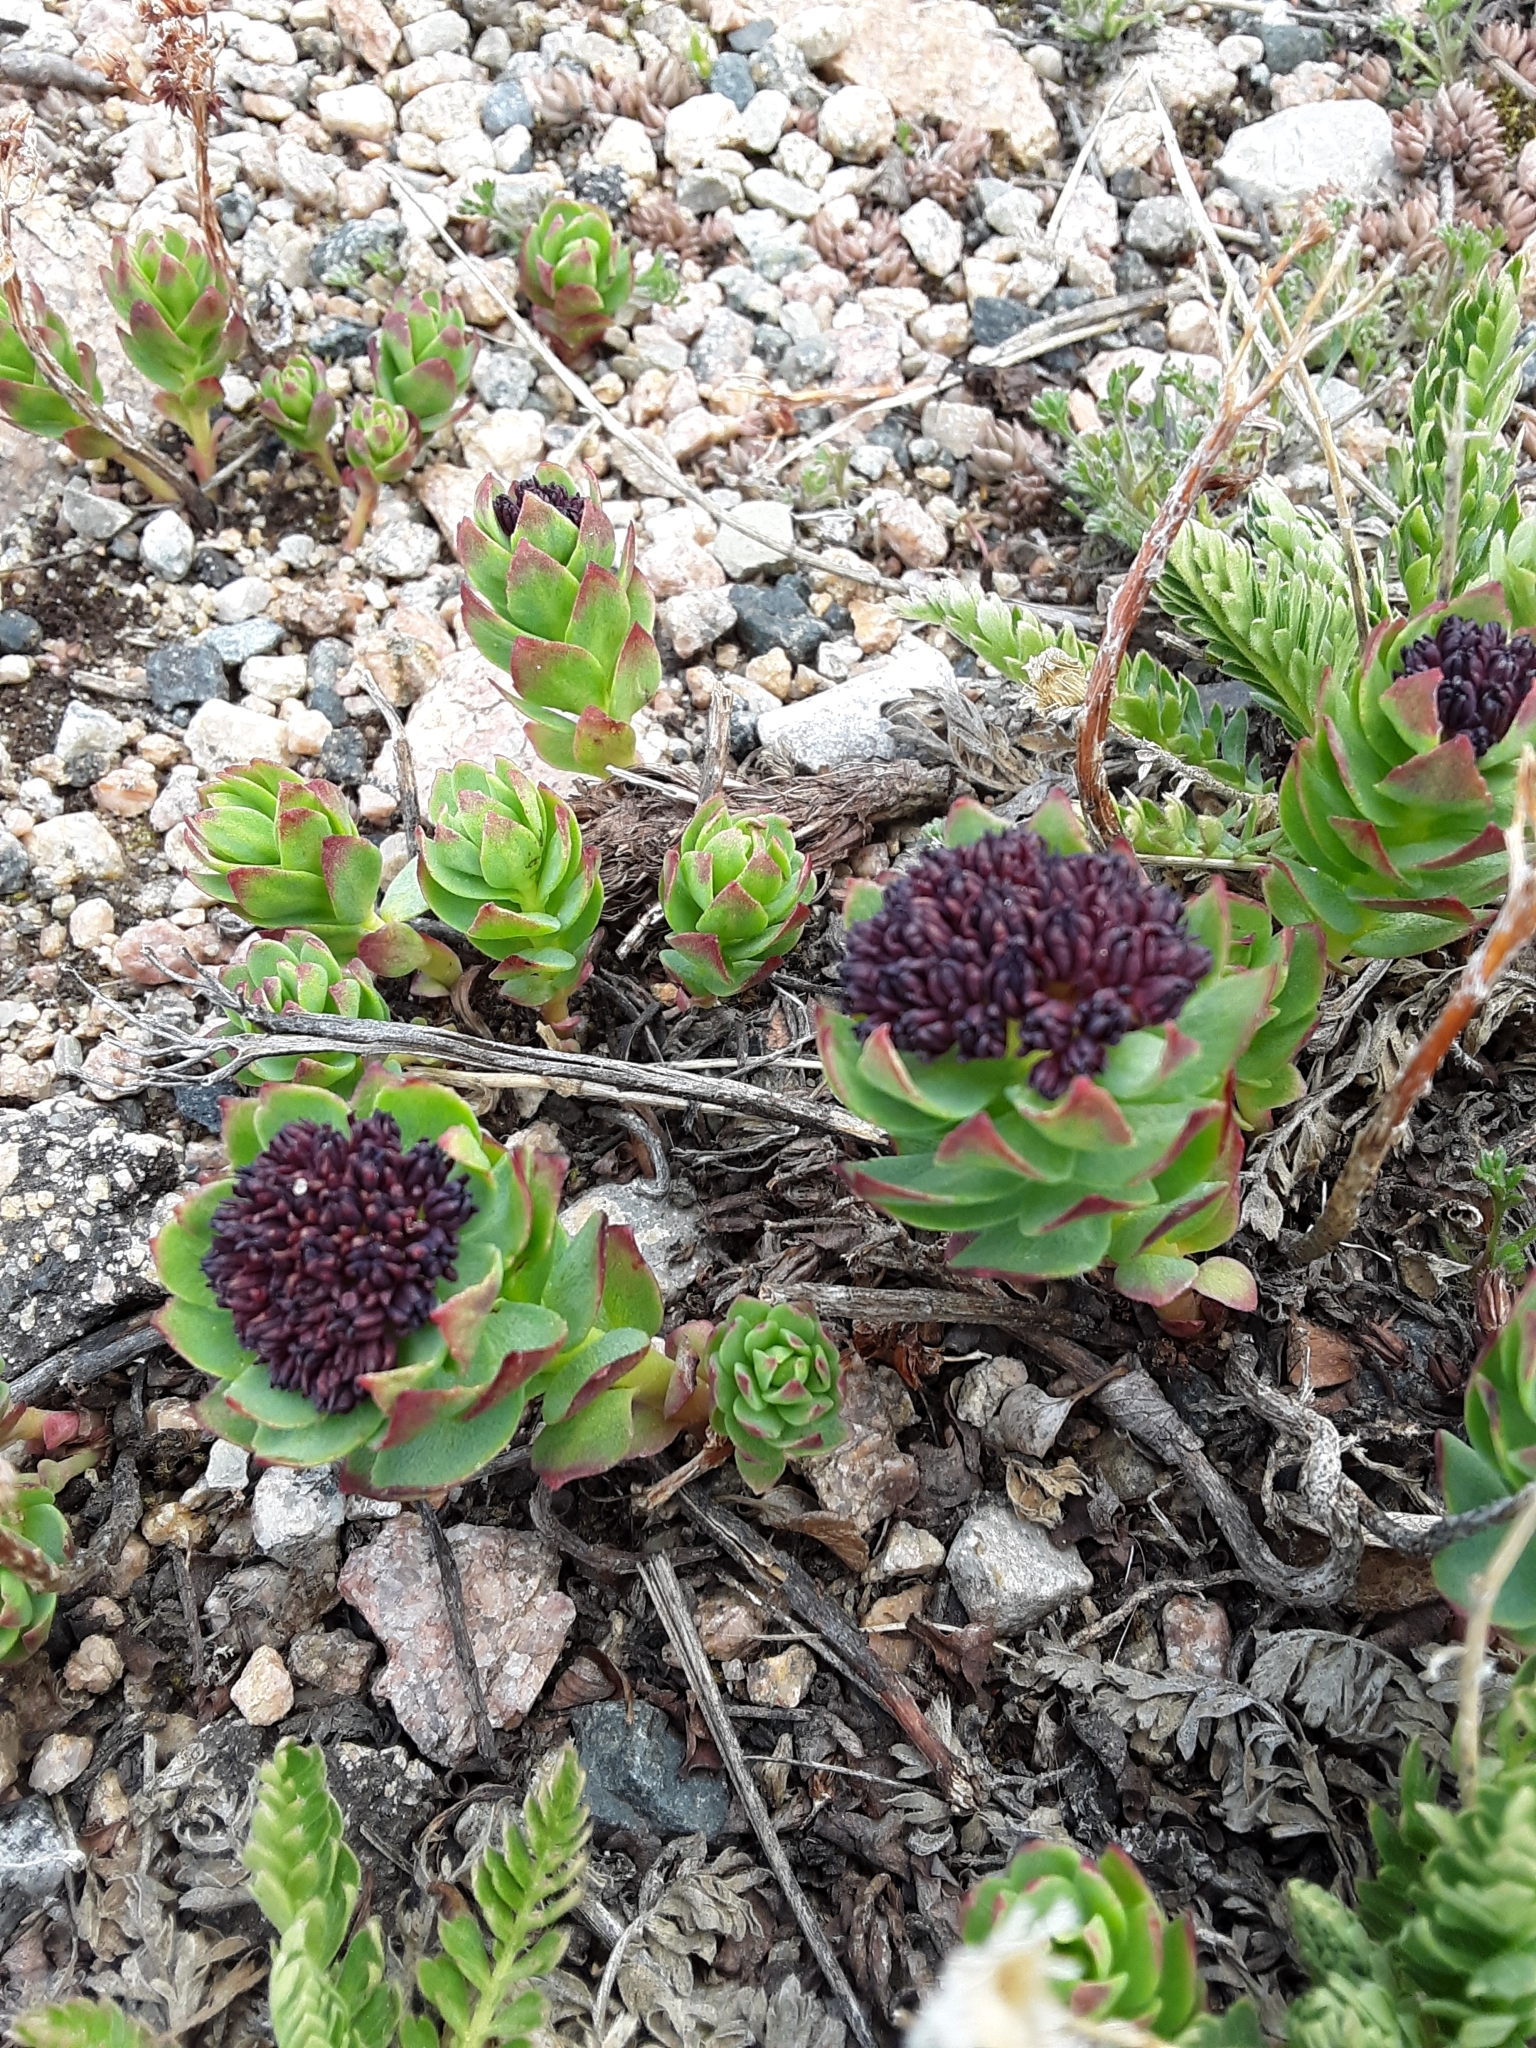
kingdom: Plantae
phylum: Tracheophyta
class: Magnoliopsida
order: Saxifragales
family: Crassulaceae
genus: Rhodiola
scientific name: Rhodiola integrifolia
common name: Western roseroot
